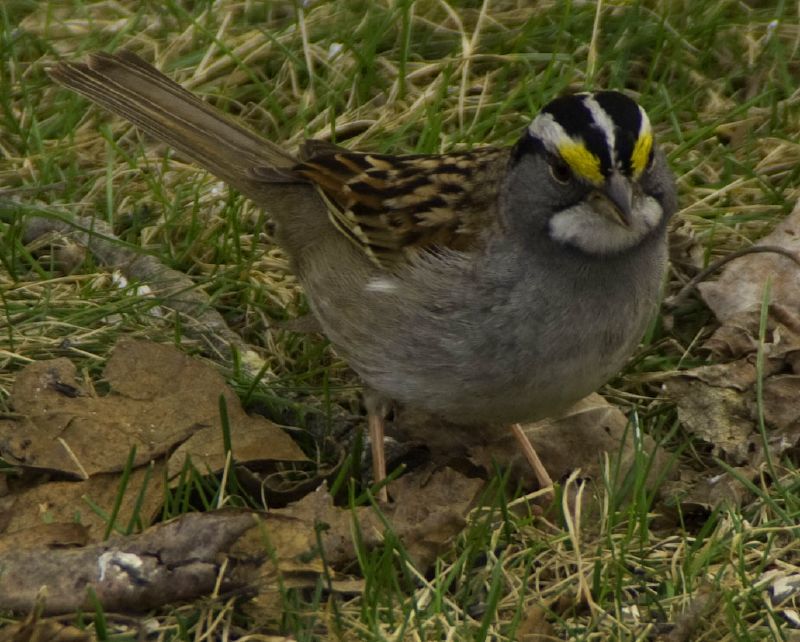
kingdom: Animalia
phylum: Chordata
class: Aves
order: Passeriformes
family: Passerellidae
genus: Zonotrichia
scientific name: Zonotrichia albicollis
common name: White-throated sparrow
